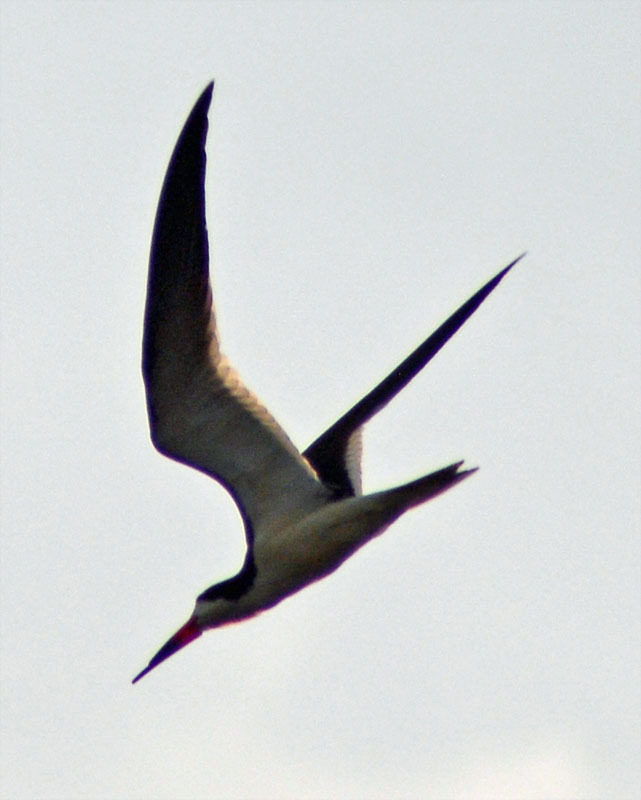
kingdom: Animalia
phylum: Chordata
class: Aves
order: Charadriiformes
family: Laridae
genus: Rynchops
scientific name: Rynchops niger
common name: Black skimmer
